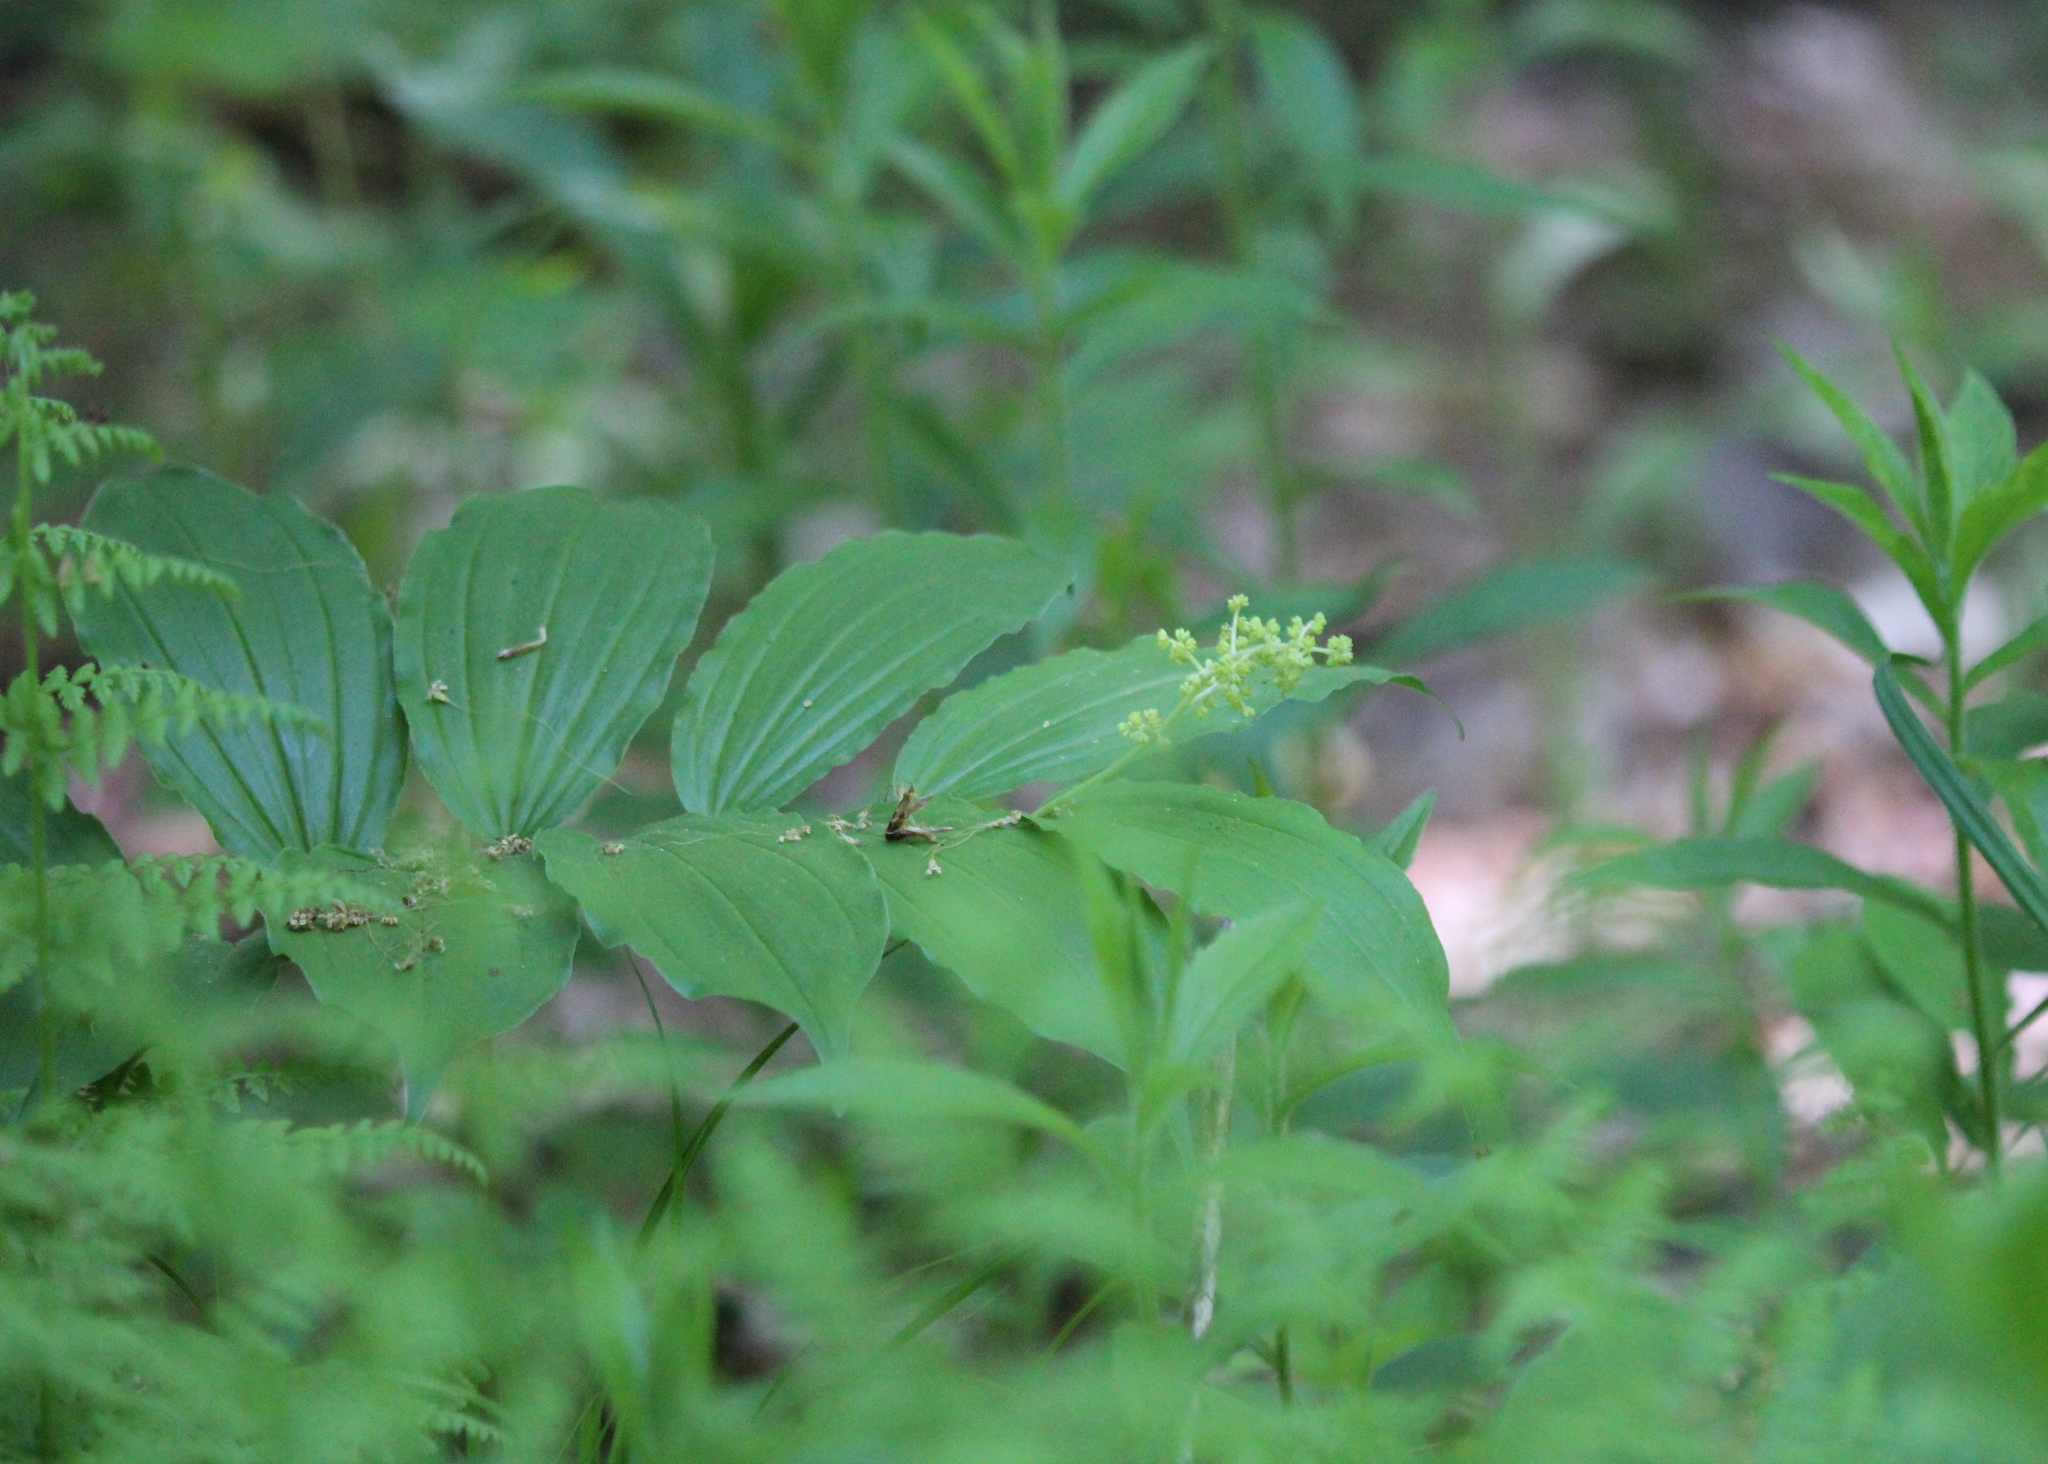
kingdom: Plantae
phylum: Tracheophyta
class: Liliopsida
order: Asparagales
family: Asparagaceae
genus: Maianthemum
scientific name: Maianthemum racemosum
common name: False spikenard
